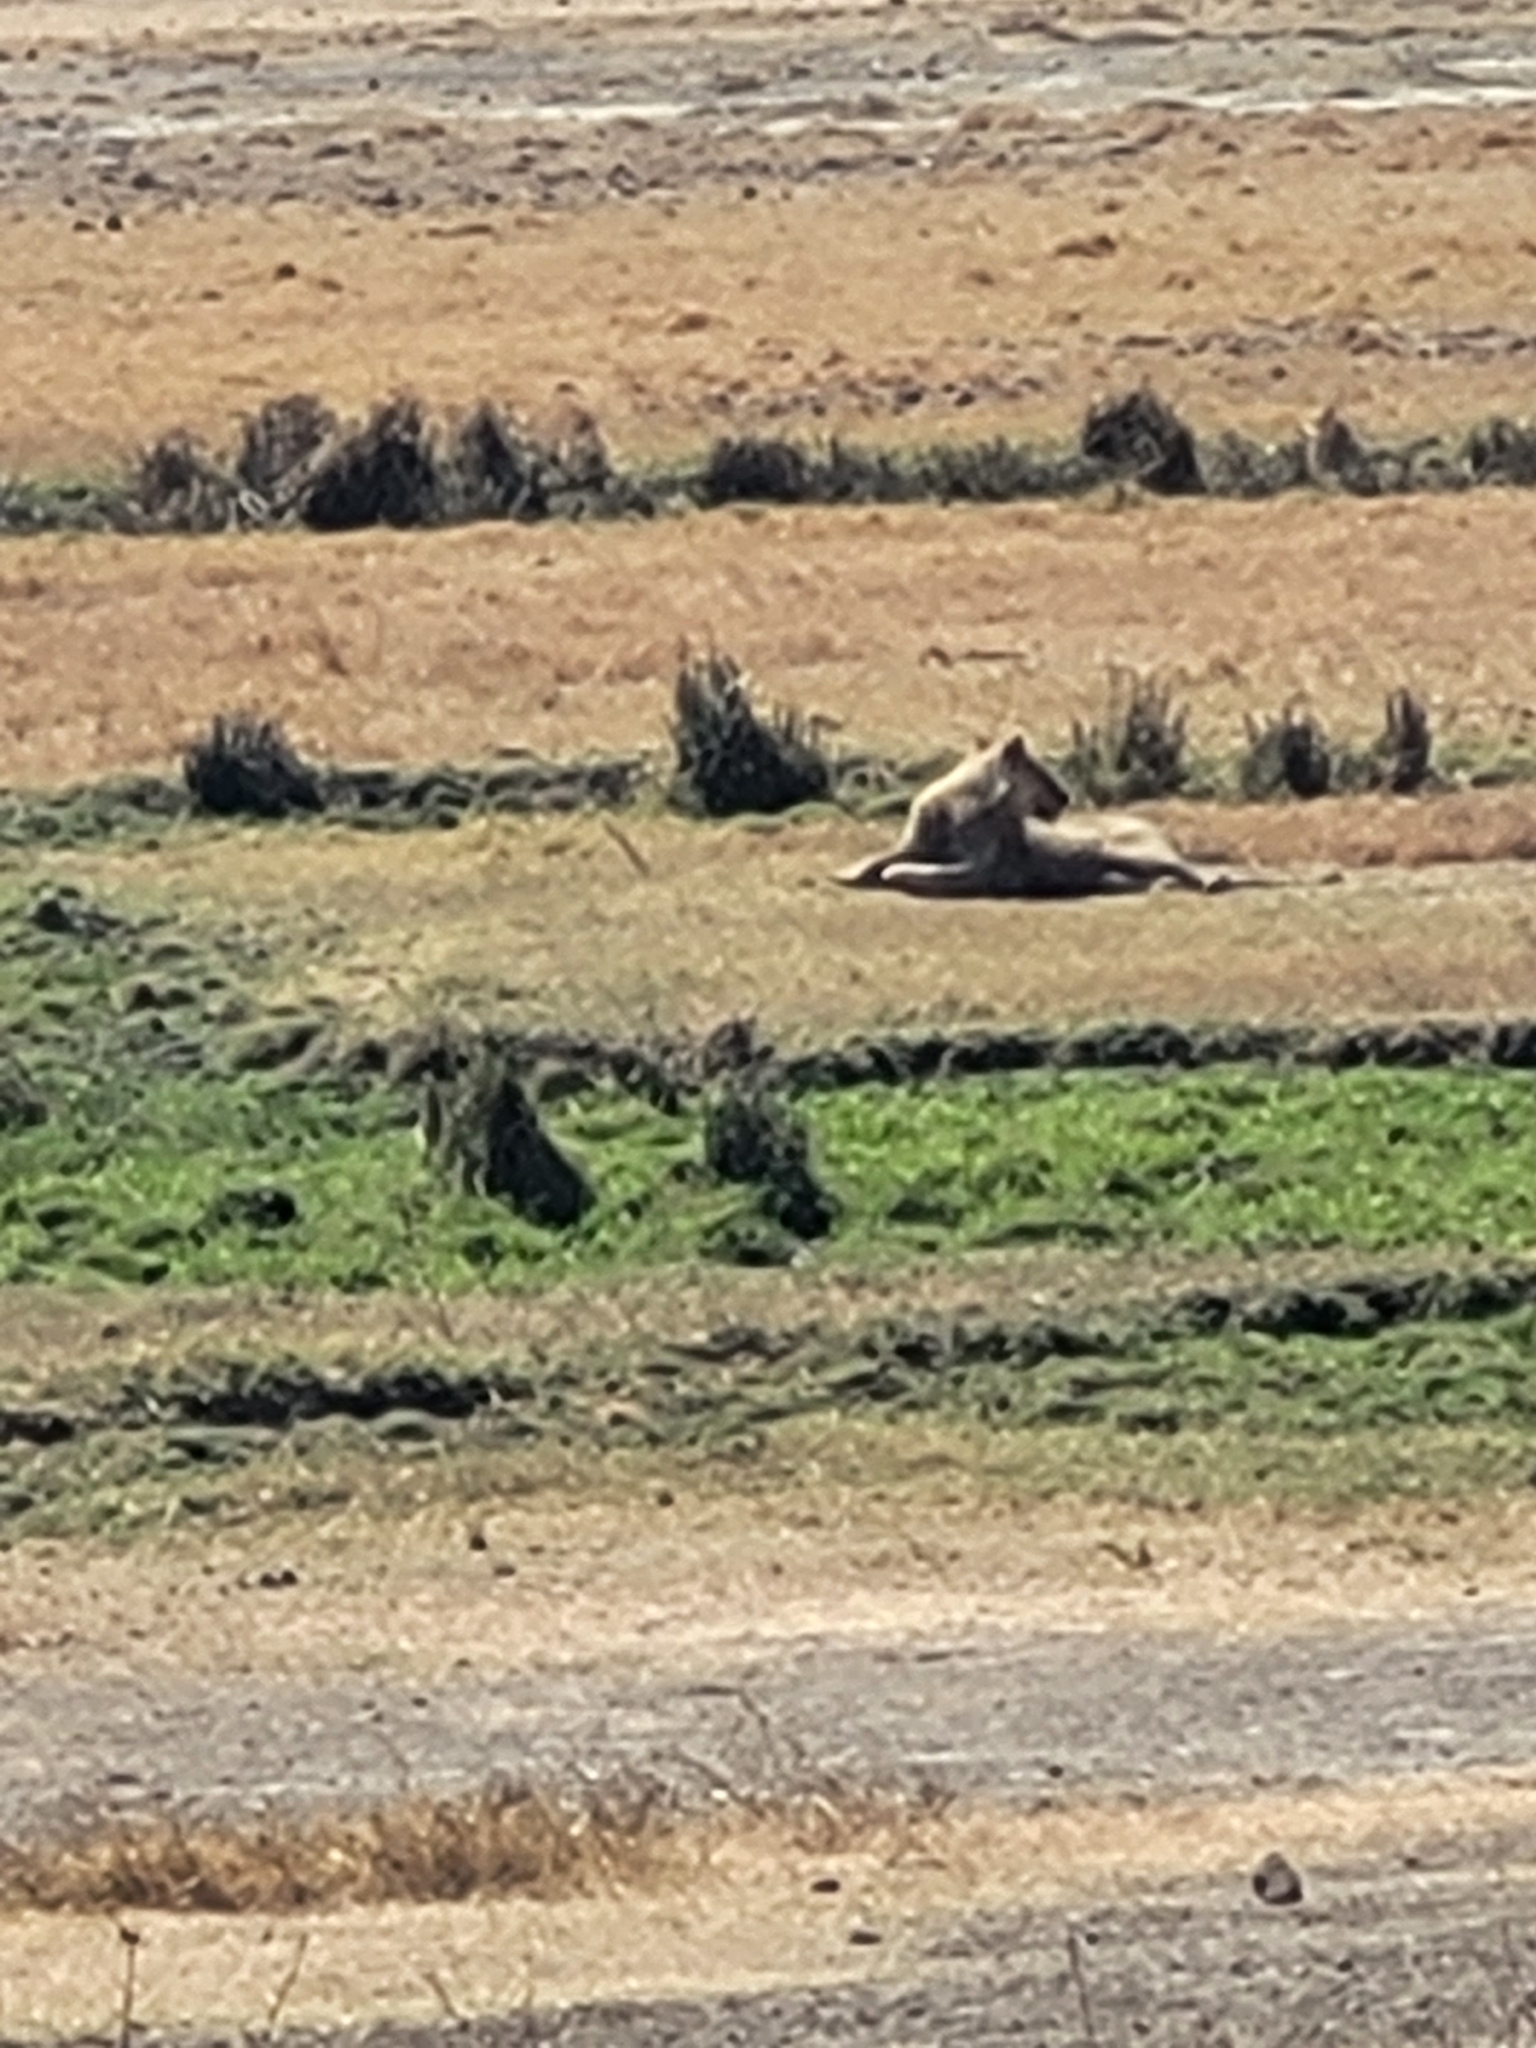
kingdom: Animalia
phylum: Chordata
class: Mammalia
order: Carnivora
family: Felidae
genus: Panthera
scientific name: Panthera leo
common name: Lion
